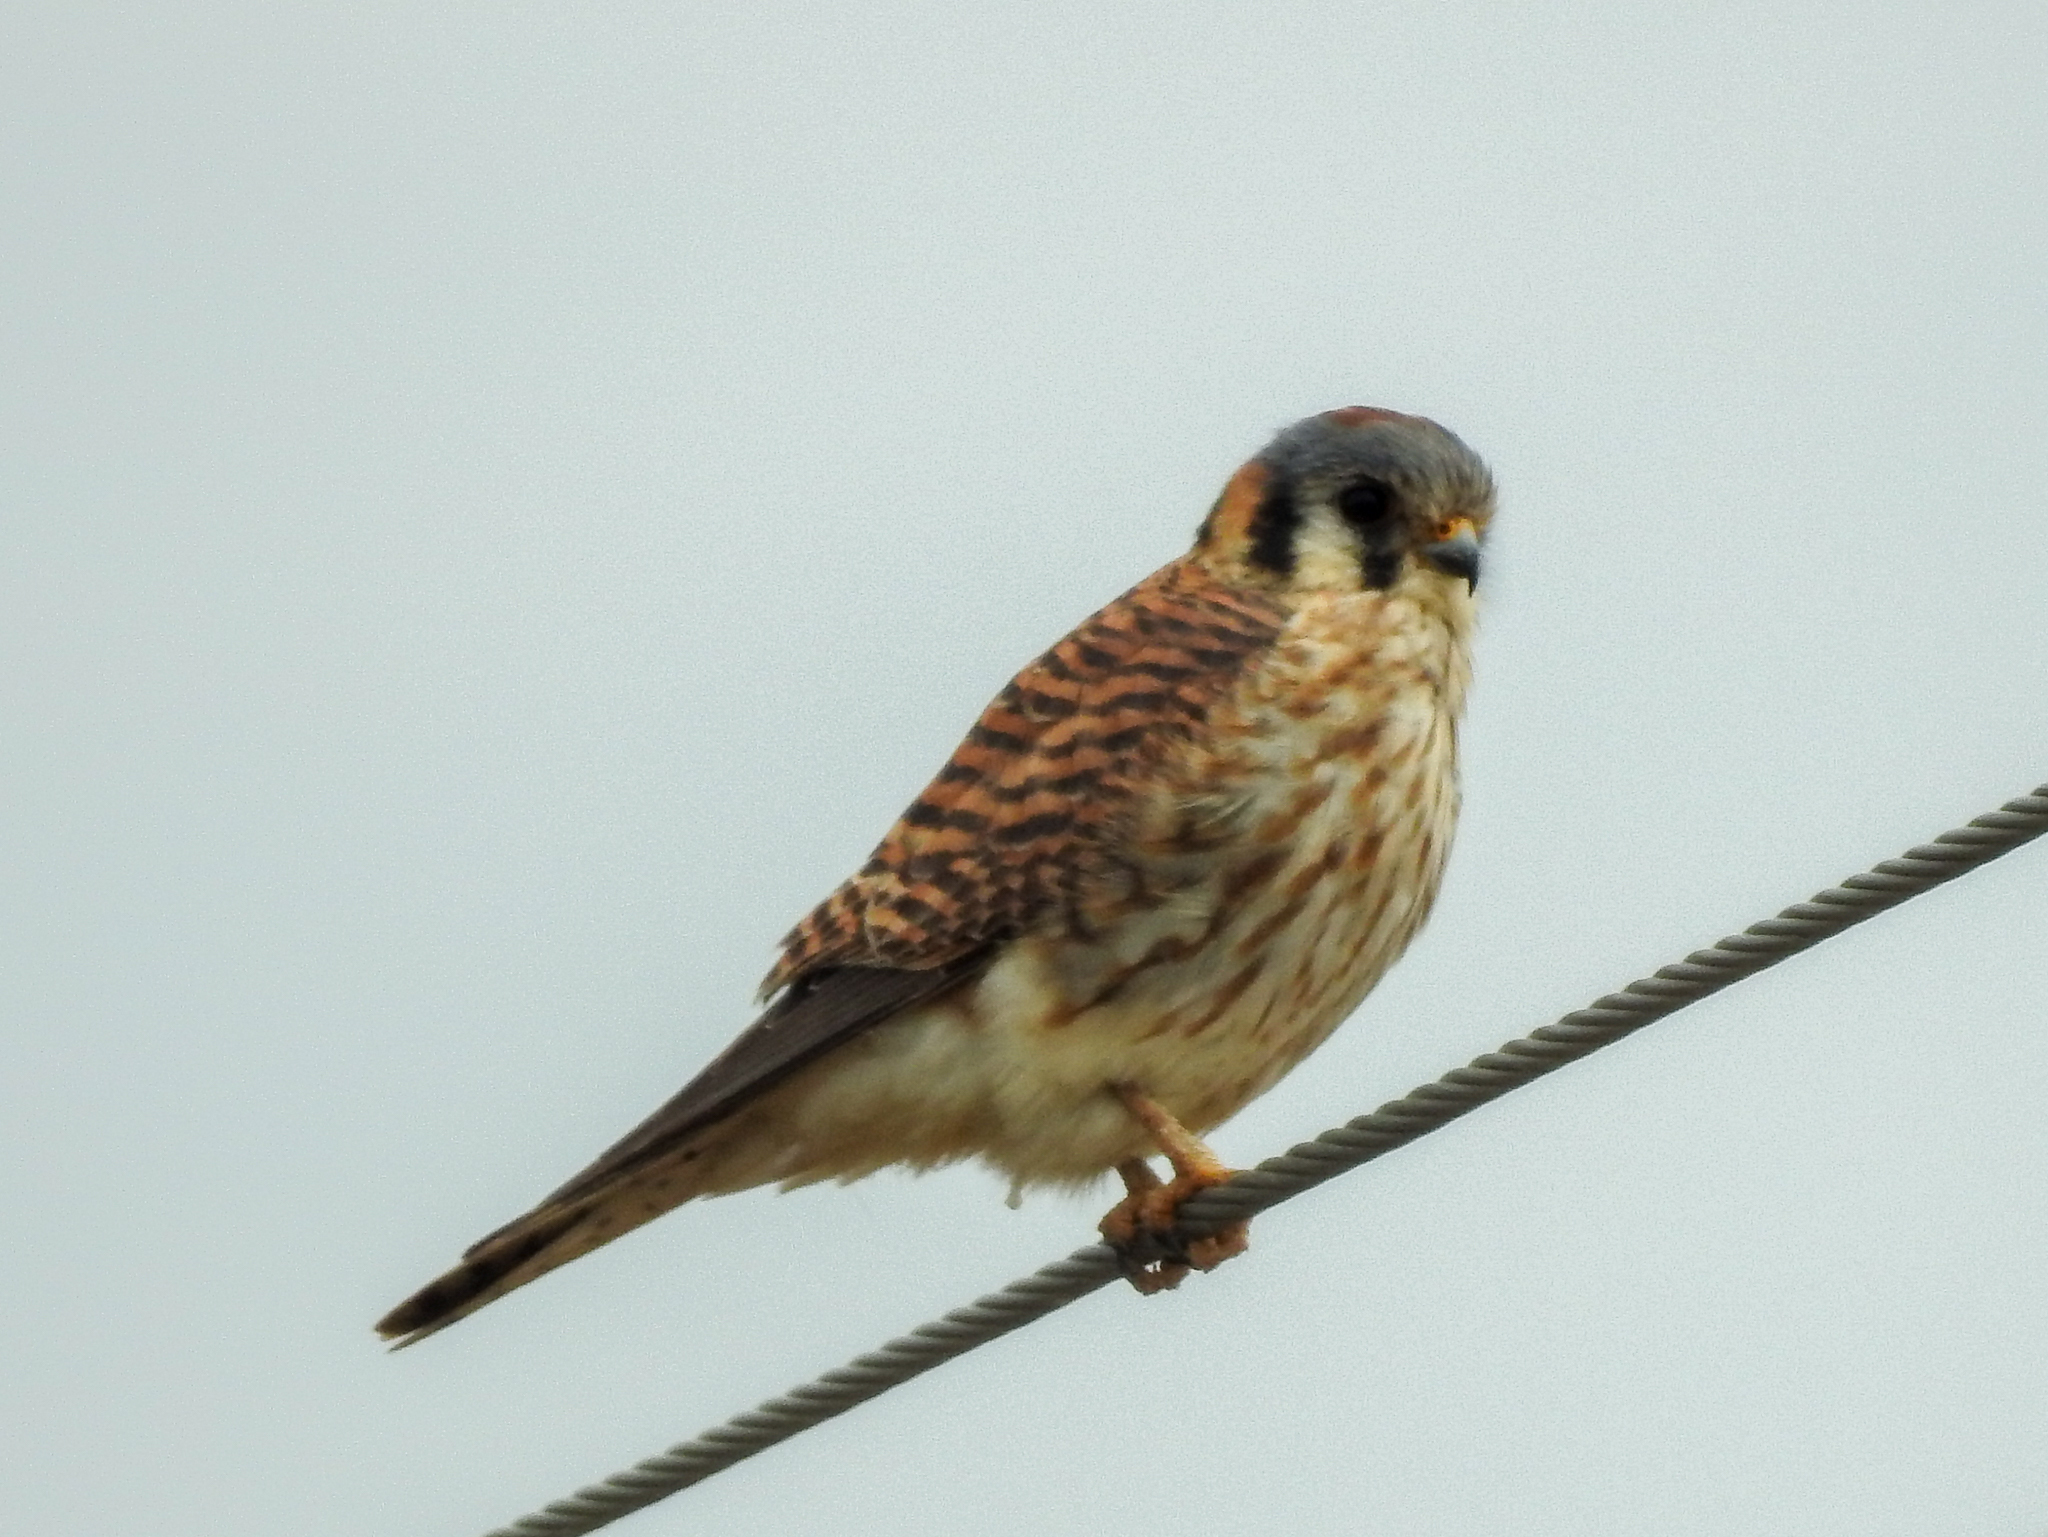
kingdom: Animalia
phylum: Chordata
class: Aves
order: Falconiformes
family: Falconidae
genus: Falco
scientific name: Falco sparverius
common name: American kestrel
